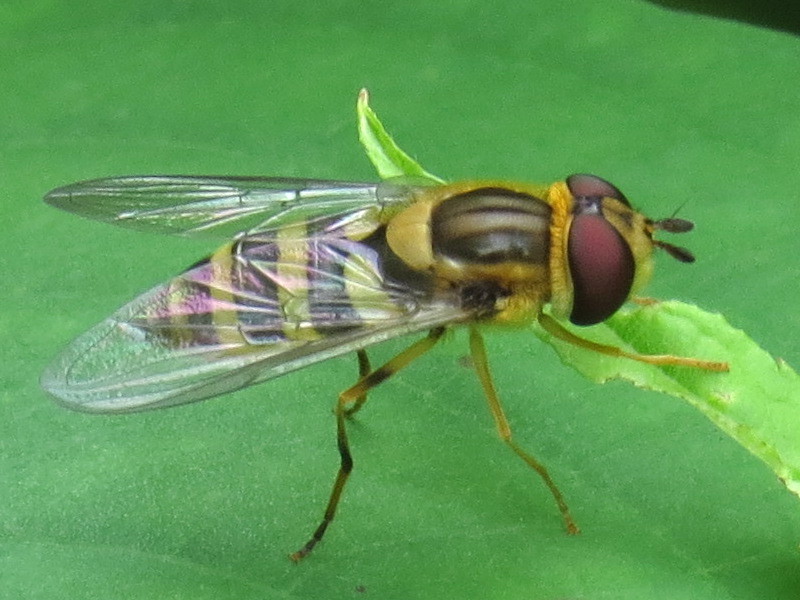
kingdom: Animalia
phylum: Arthropoda
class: Insecta
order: Diptera
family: Syrphidae
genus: Syrphus
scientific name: Syrphus knabi
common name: Eastern flower fly
